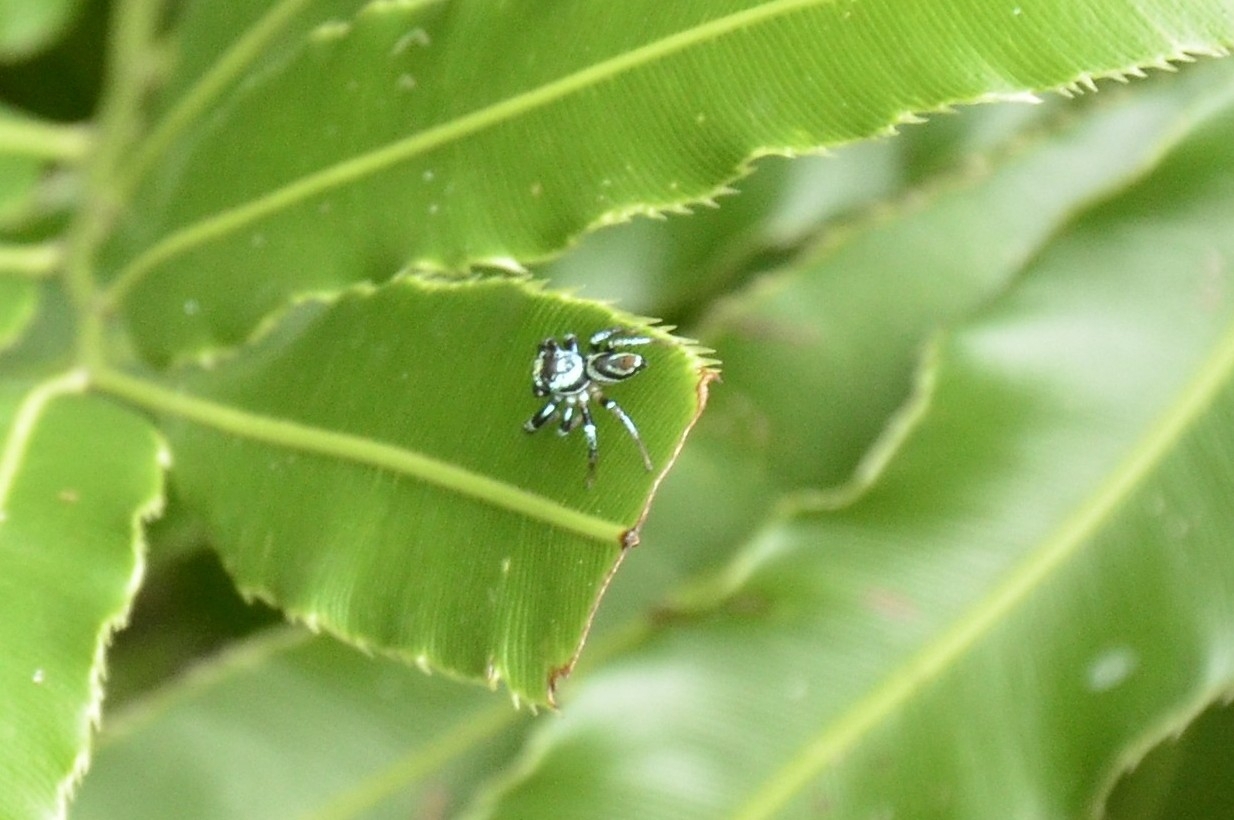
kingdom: Animalia
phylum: Arthropoda
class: Arachnida
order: Araneae
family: Salticidae
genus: Thiania
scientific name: Thiania bhamoensis
